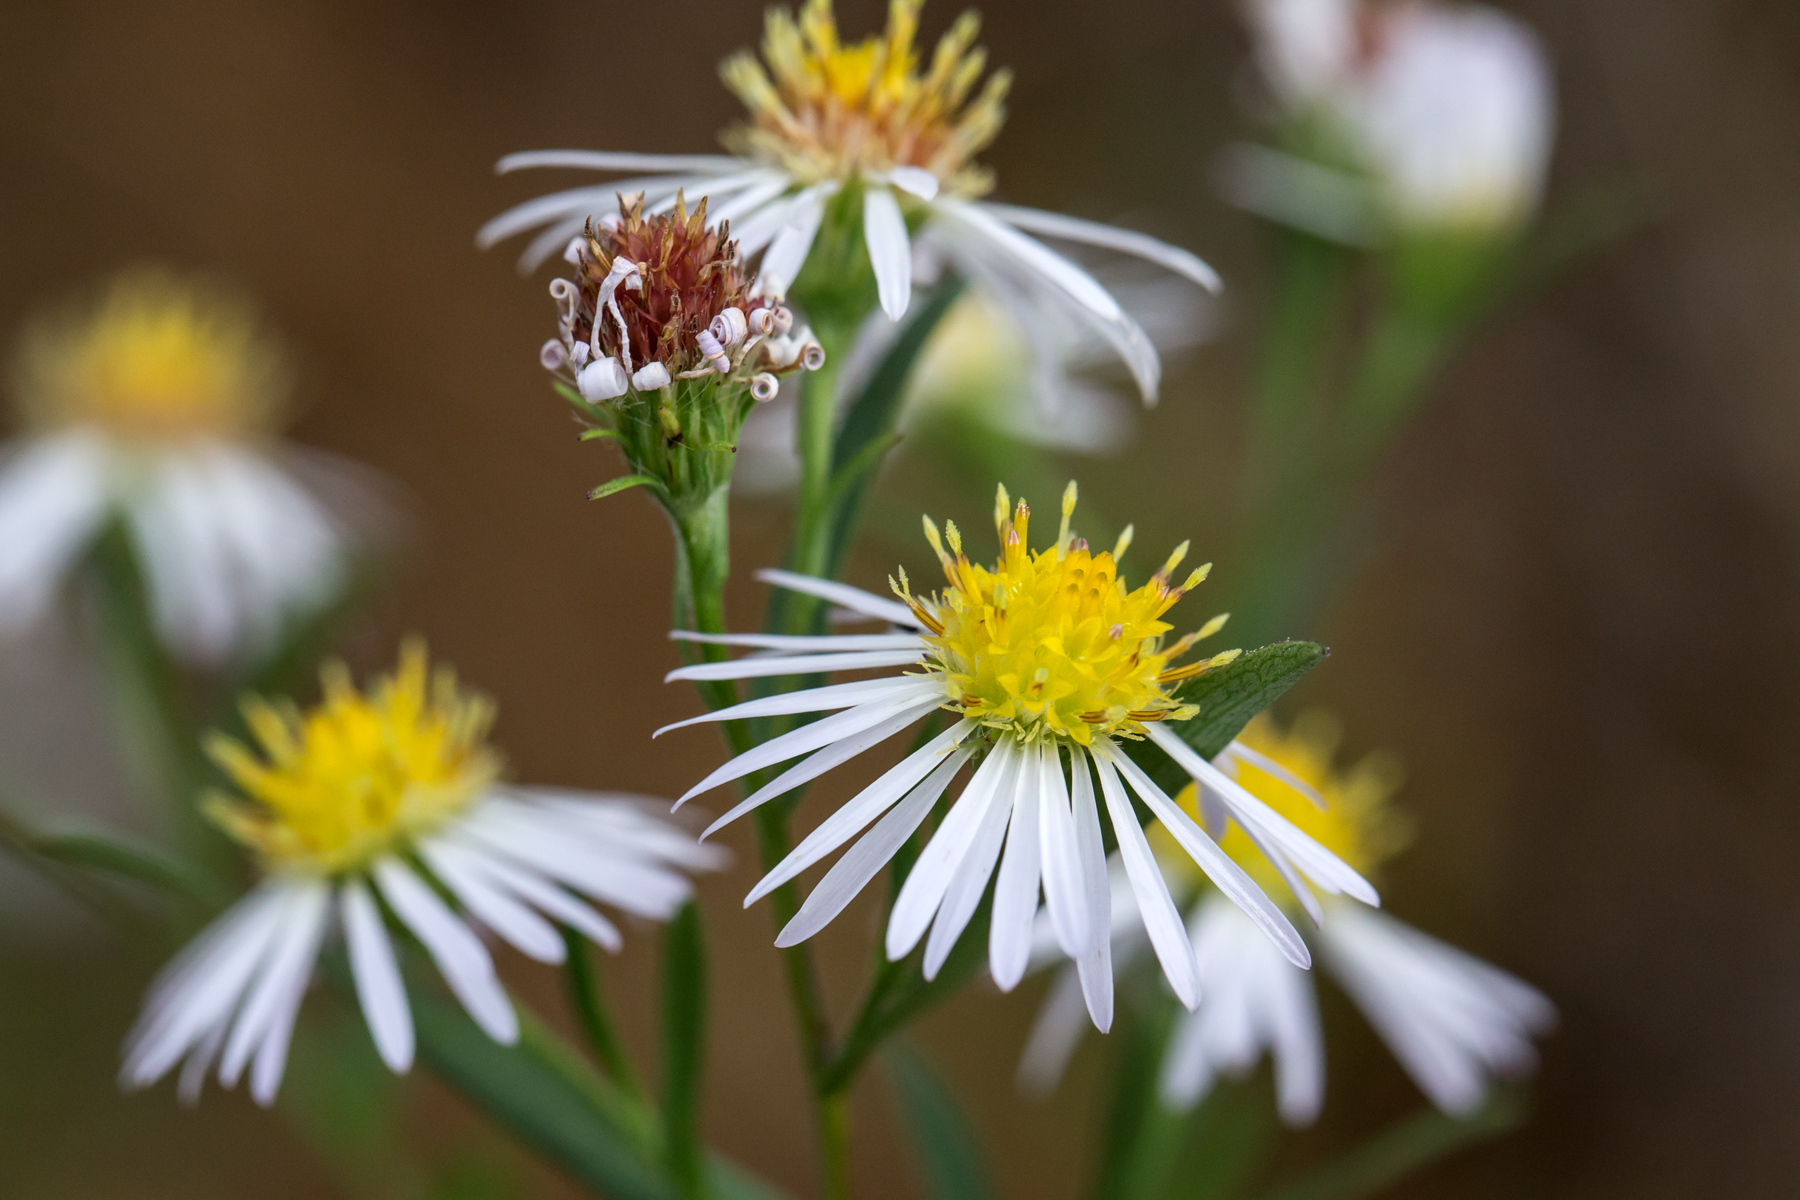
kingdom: Plantae
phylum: Tracheophyta
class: Magnoliopsida
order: Asterales
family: Asteraceae
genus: Symphyotrichum
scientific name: Symphyotrichum lanceolatum
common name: Panicled aster
